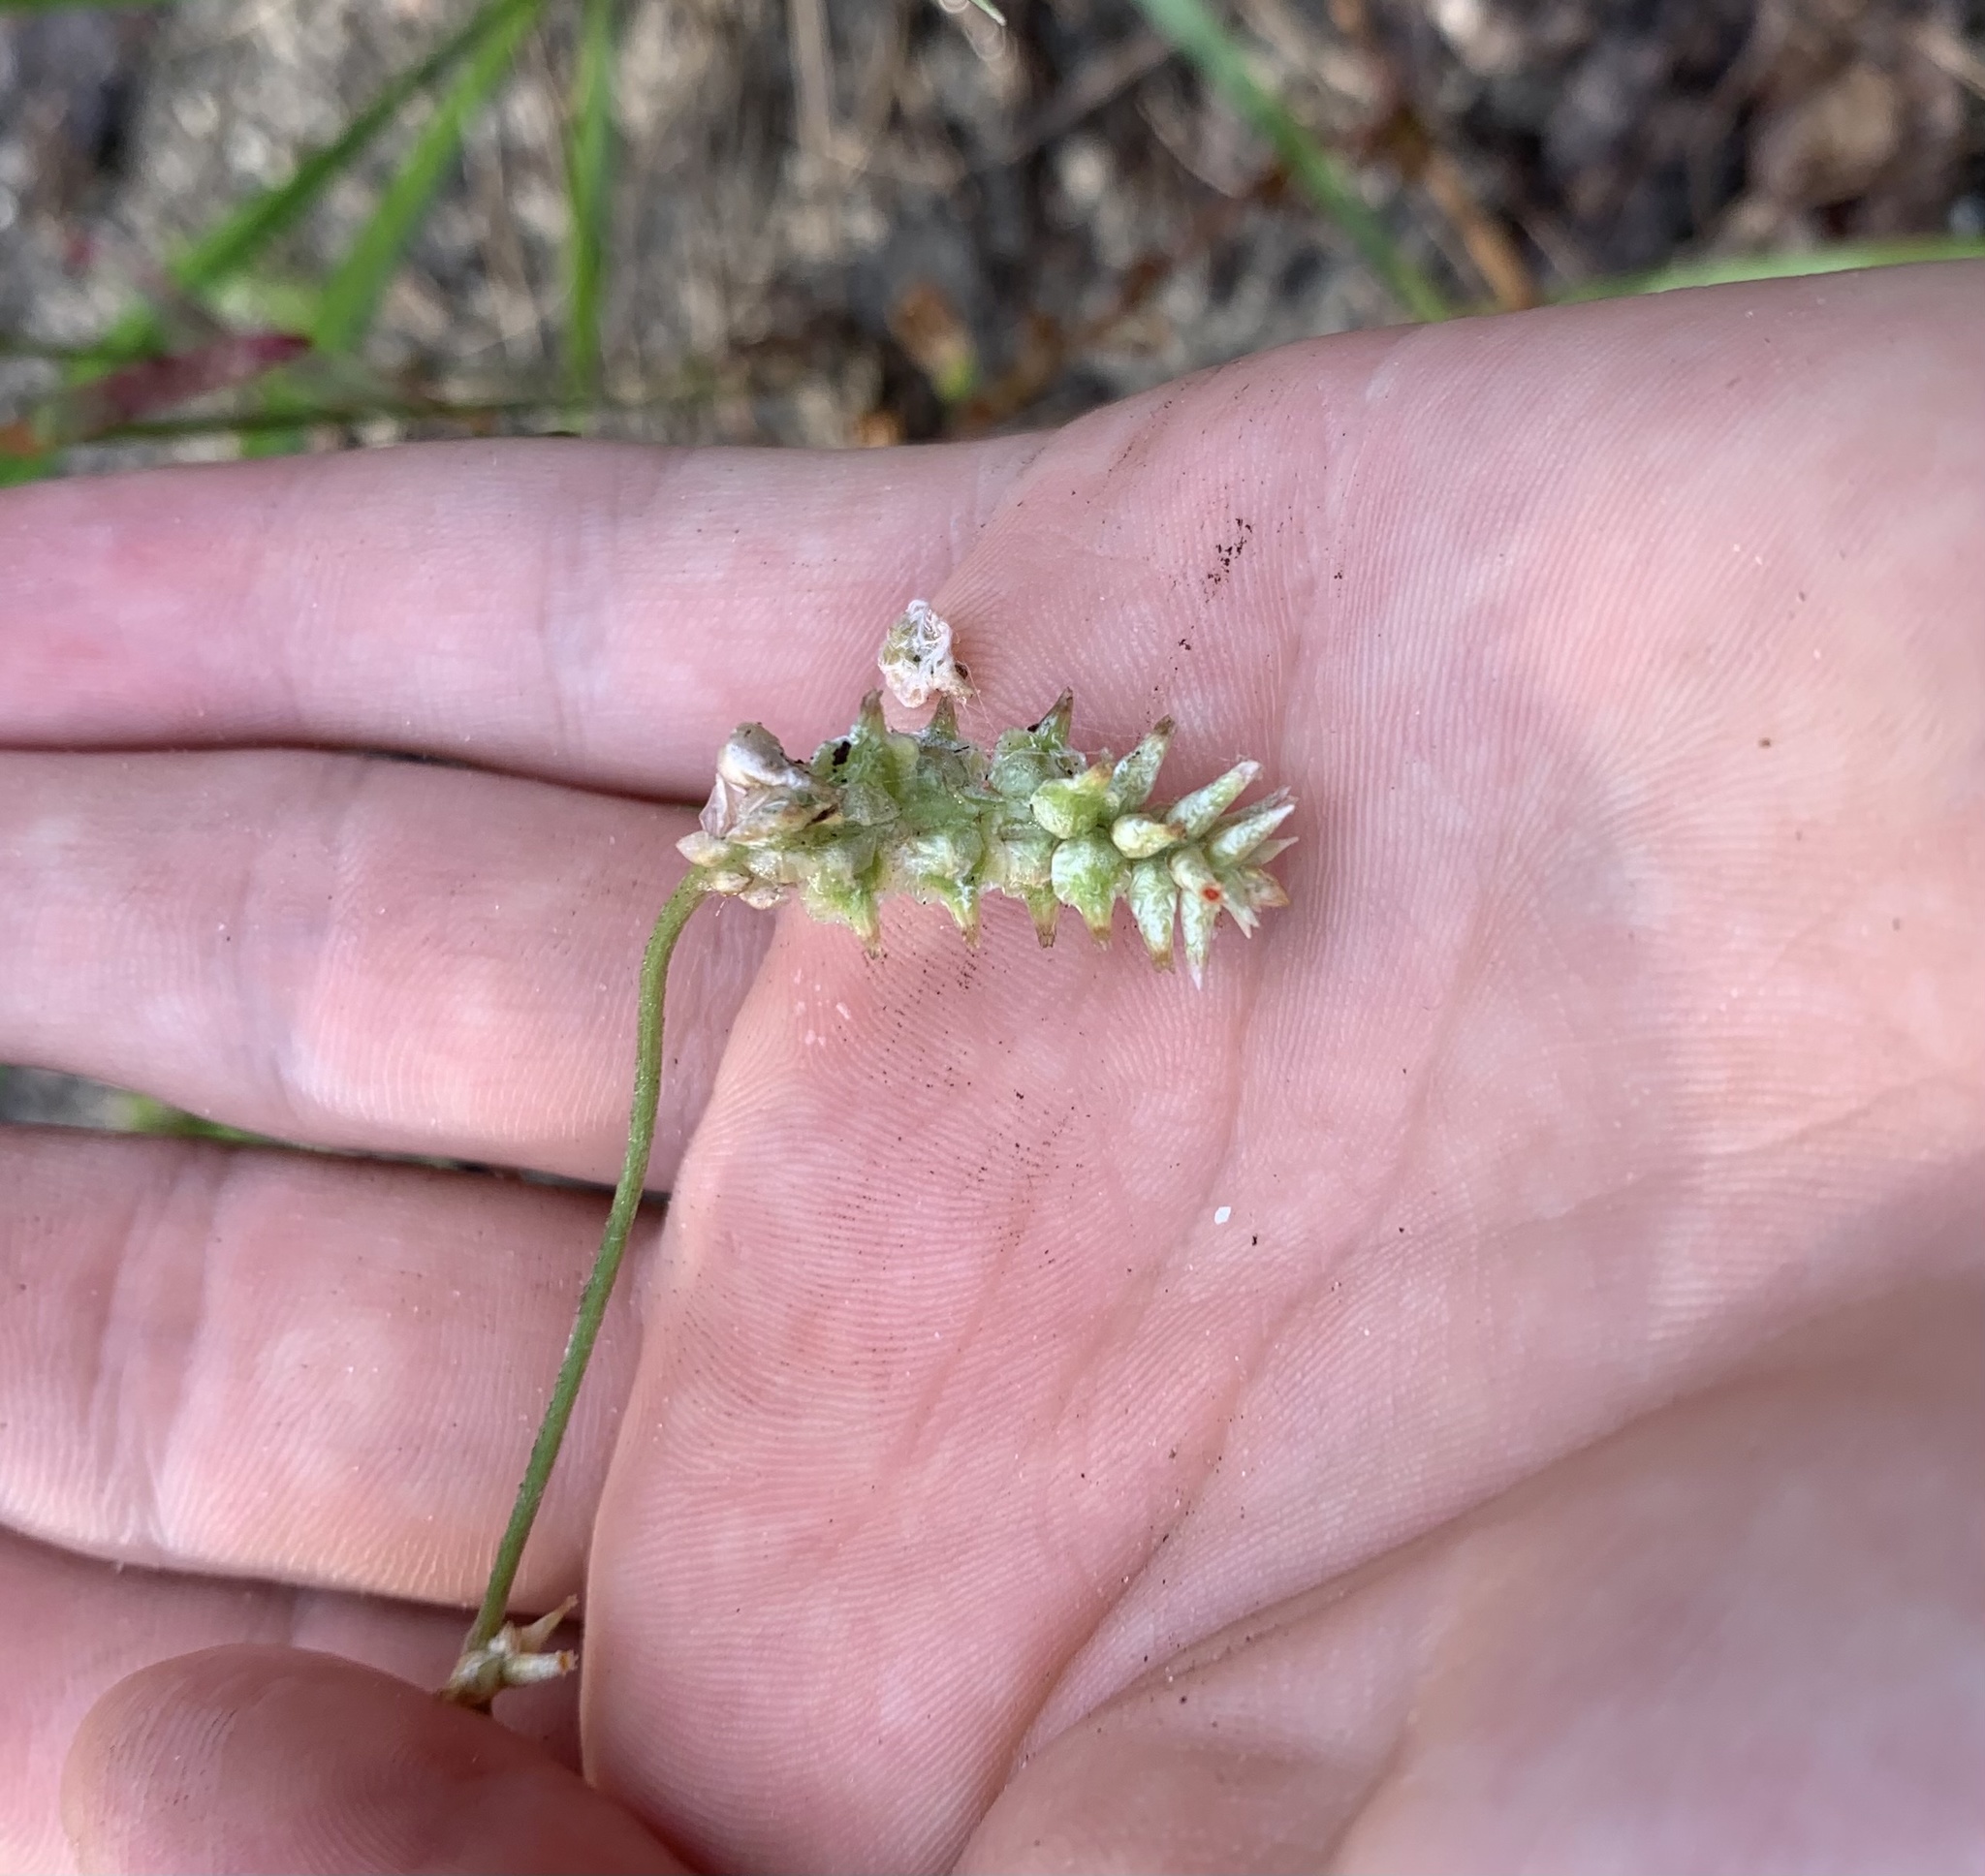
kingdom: Plantae
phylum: Tracheophyta
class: Magnoliopsida
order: Caryophyllales
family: Amaranthaceae
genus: Froelichia
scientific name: Froelichia floridana
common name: Florida snake-cotton
